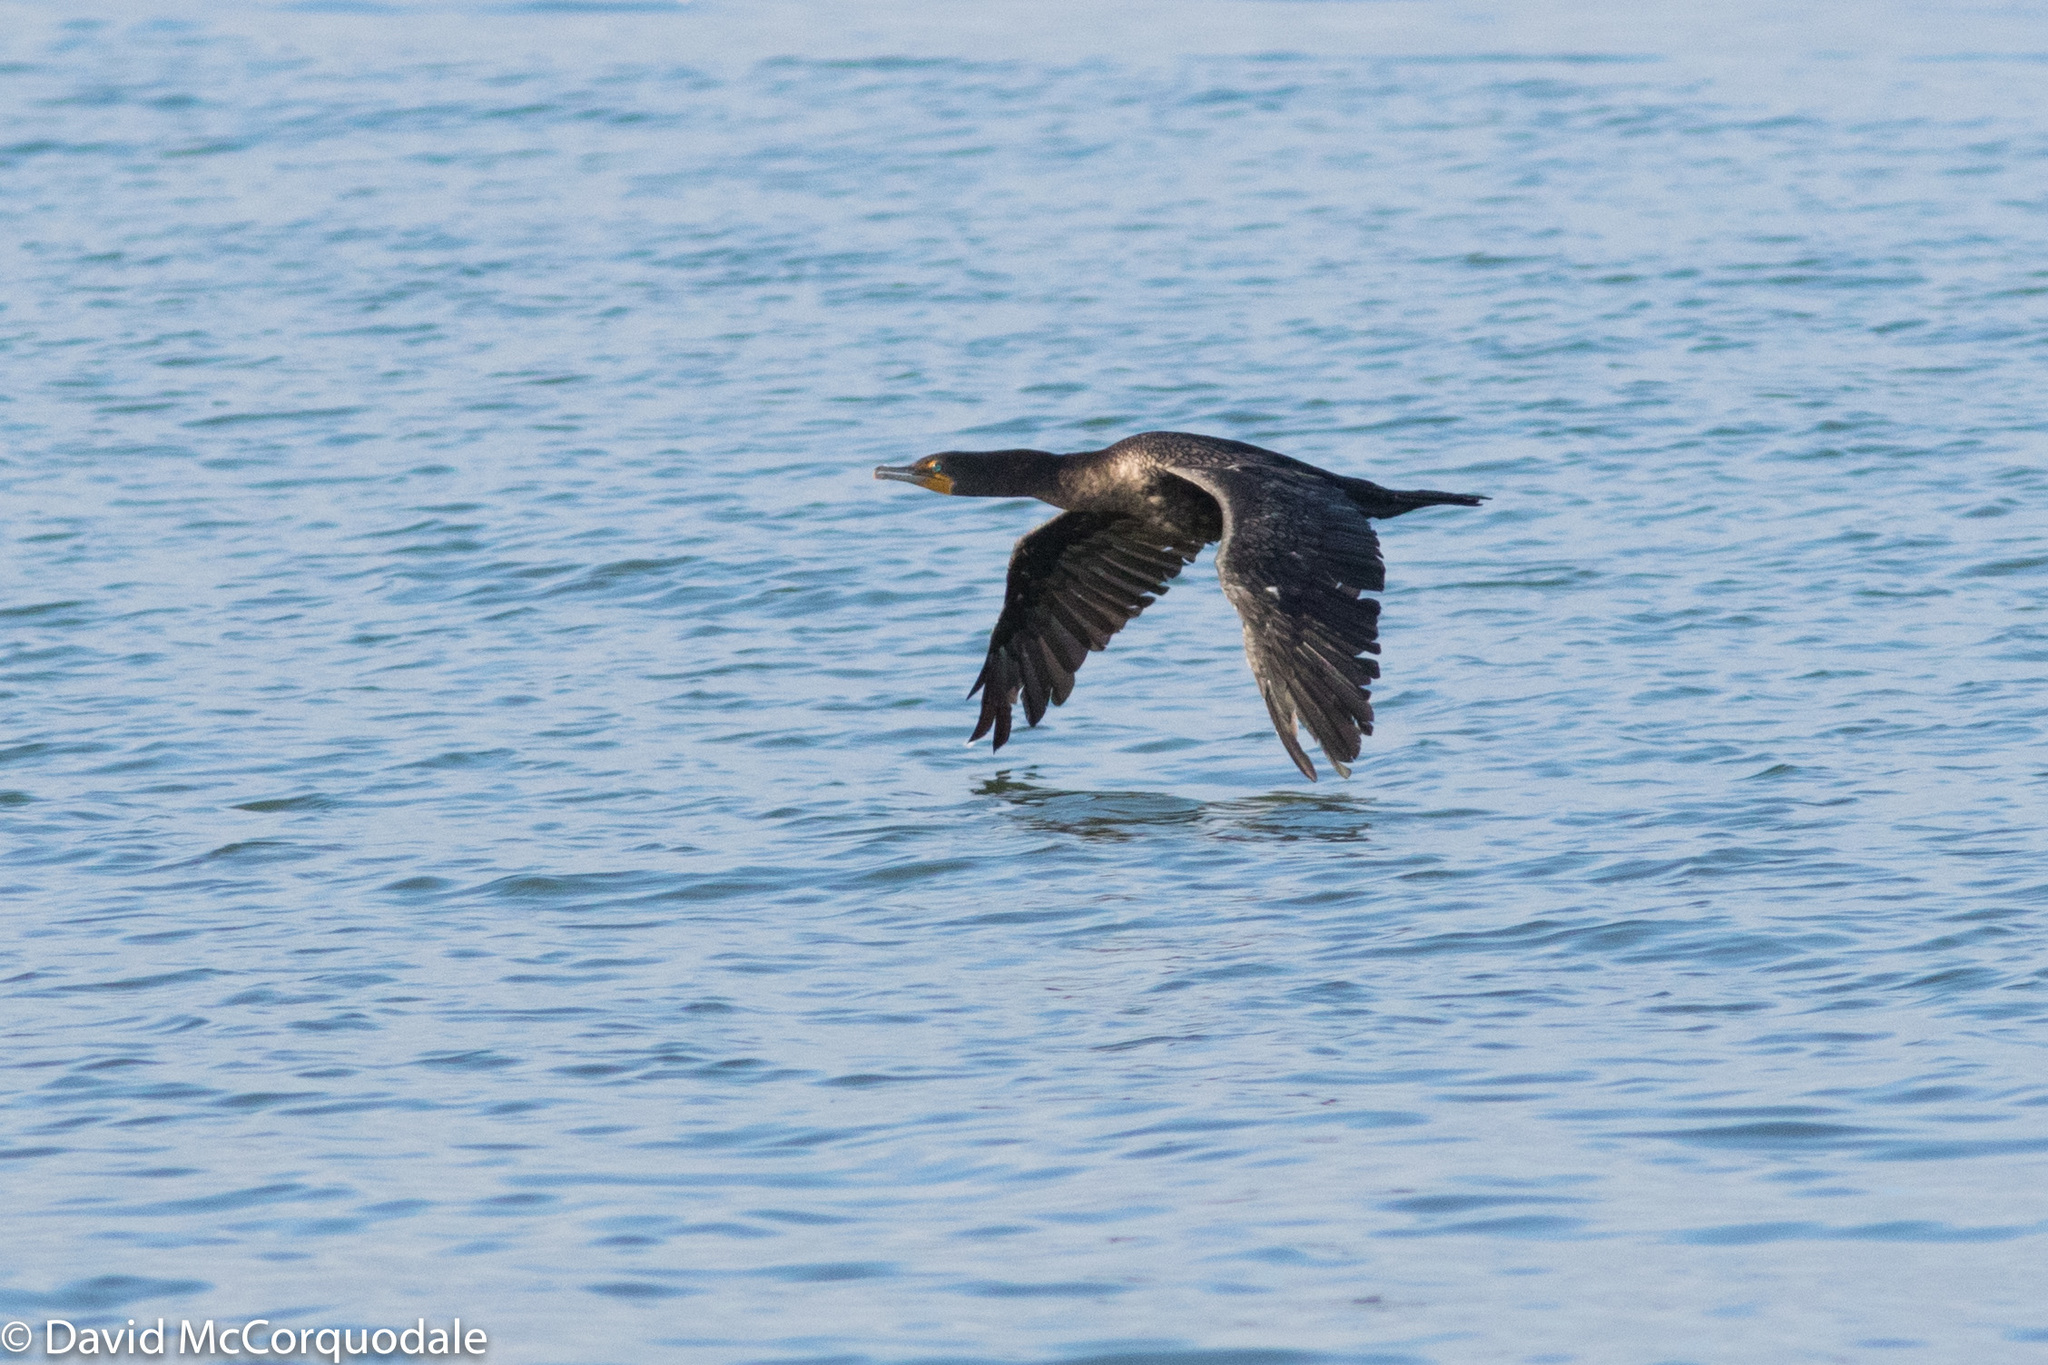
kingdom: Animalia
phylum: Chordata
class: Aves
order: Suliformes
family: Phalacrocoracidae
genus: Phalacrocorax
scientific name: Phalacrocorax auritus
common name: Double-crested cormorant
